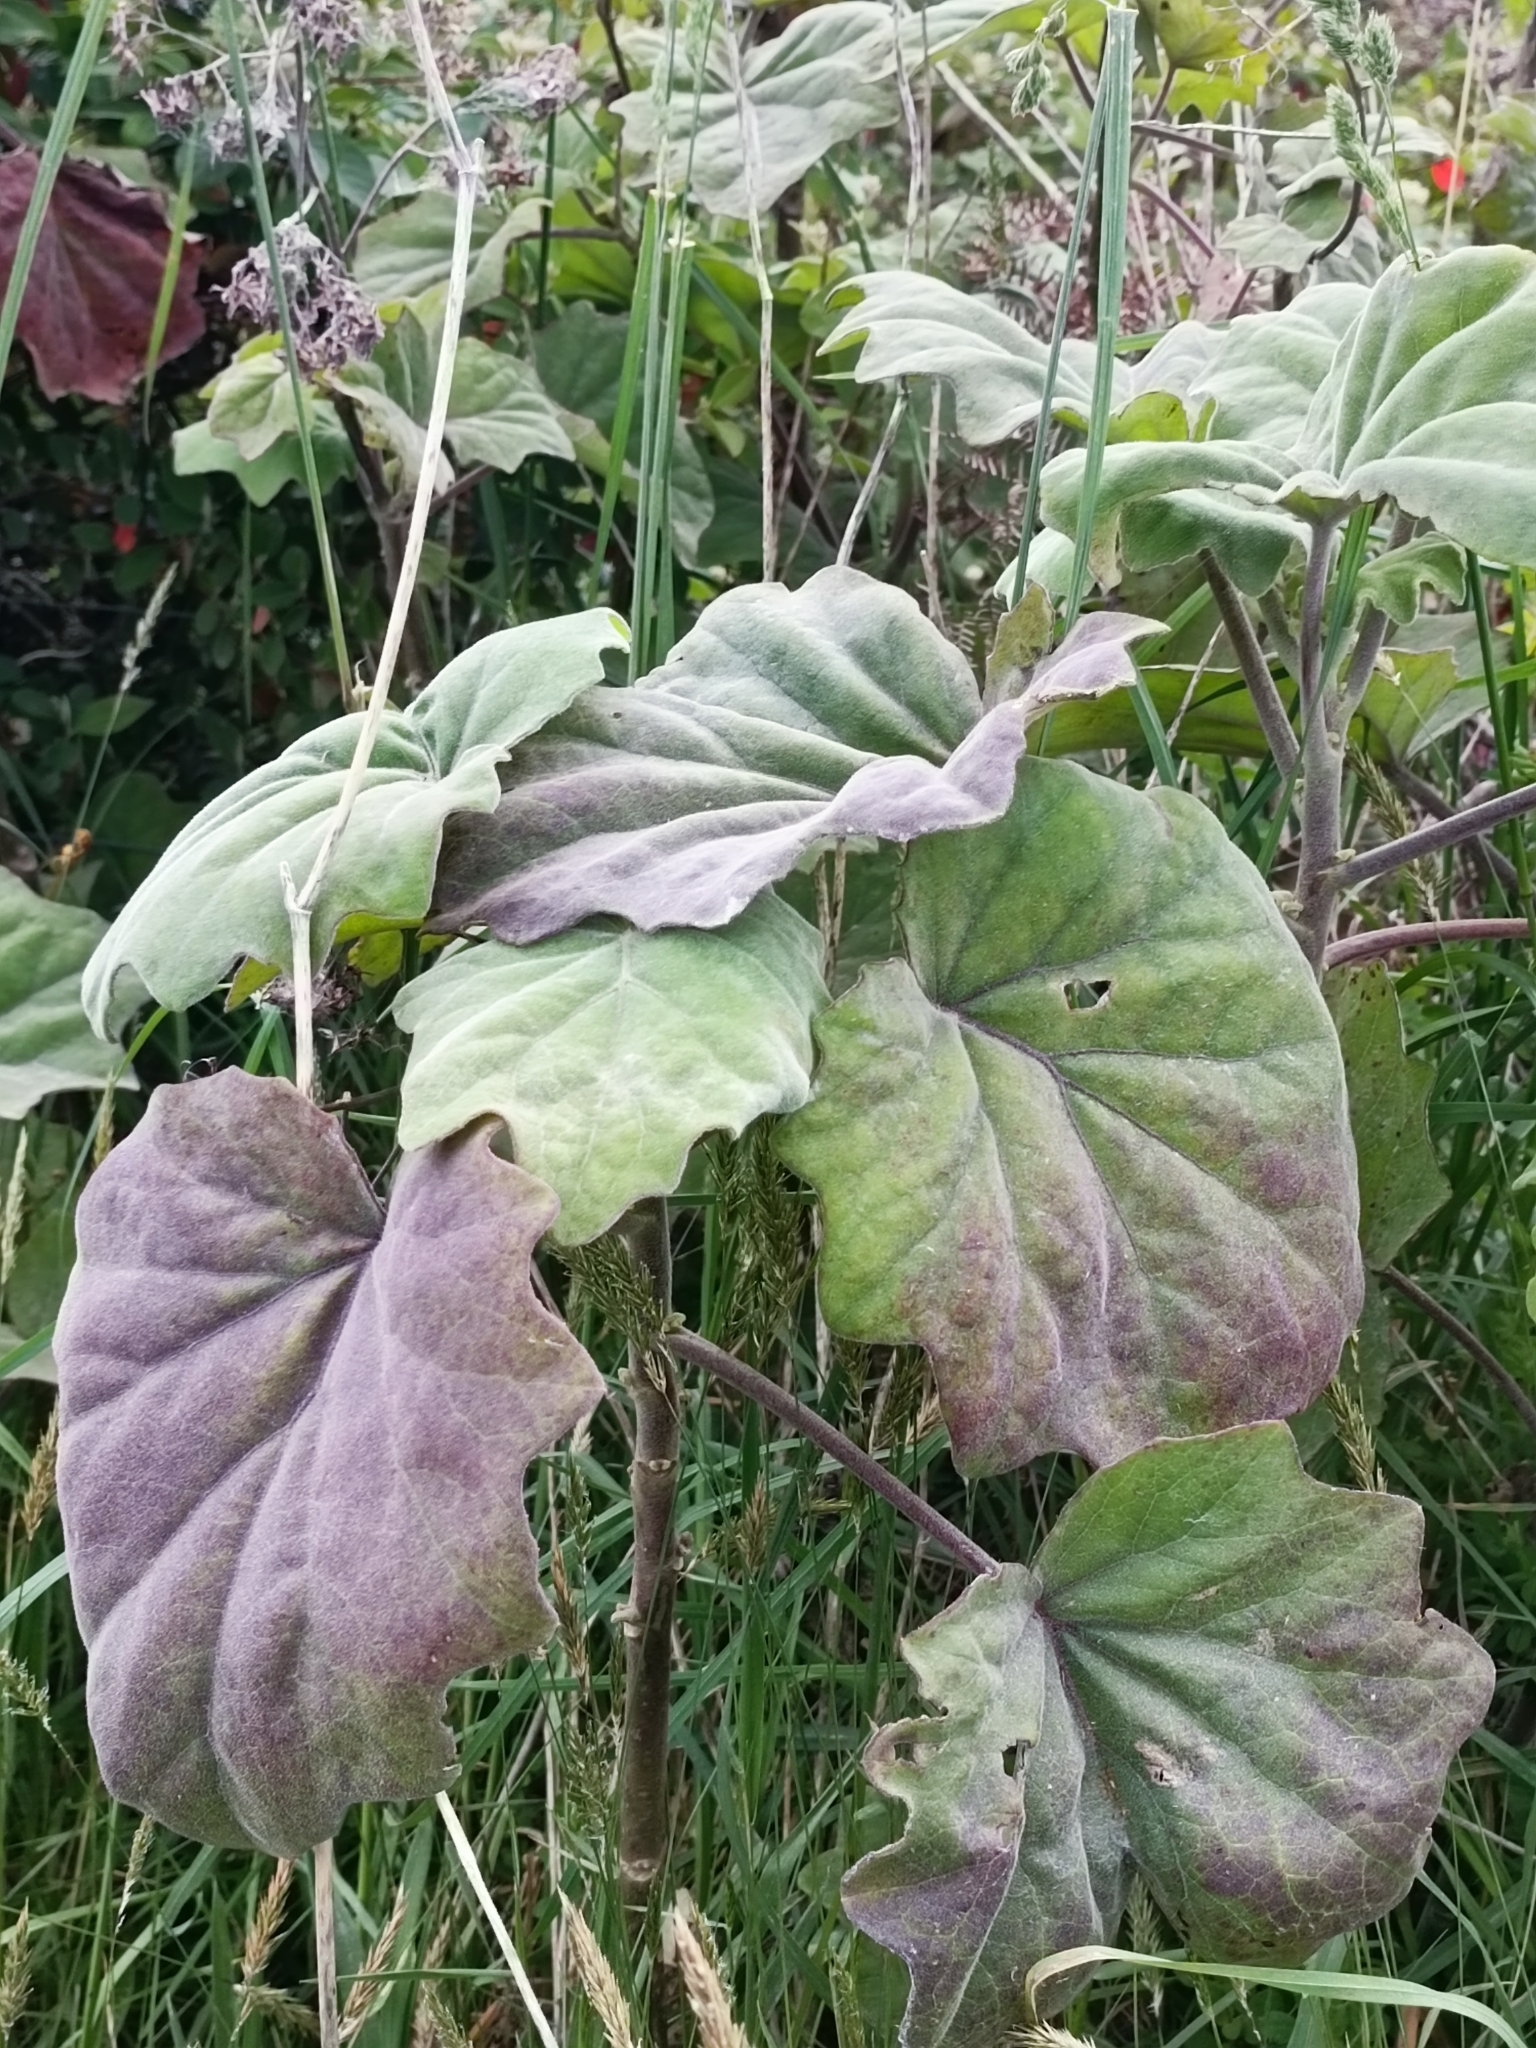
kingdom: Plantae
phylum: Tracheophyta
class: Magnoliopsida
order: Asterales
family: Asteraceae
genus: Roldana
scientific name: Roldana petasitis
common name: California-geranium
